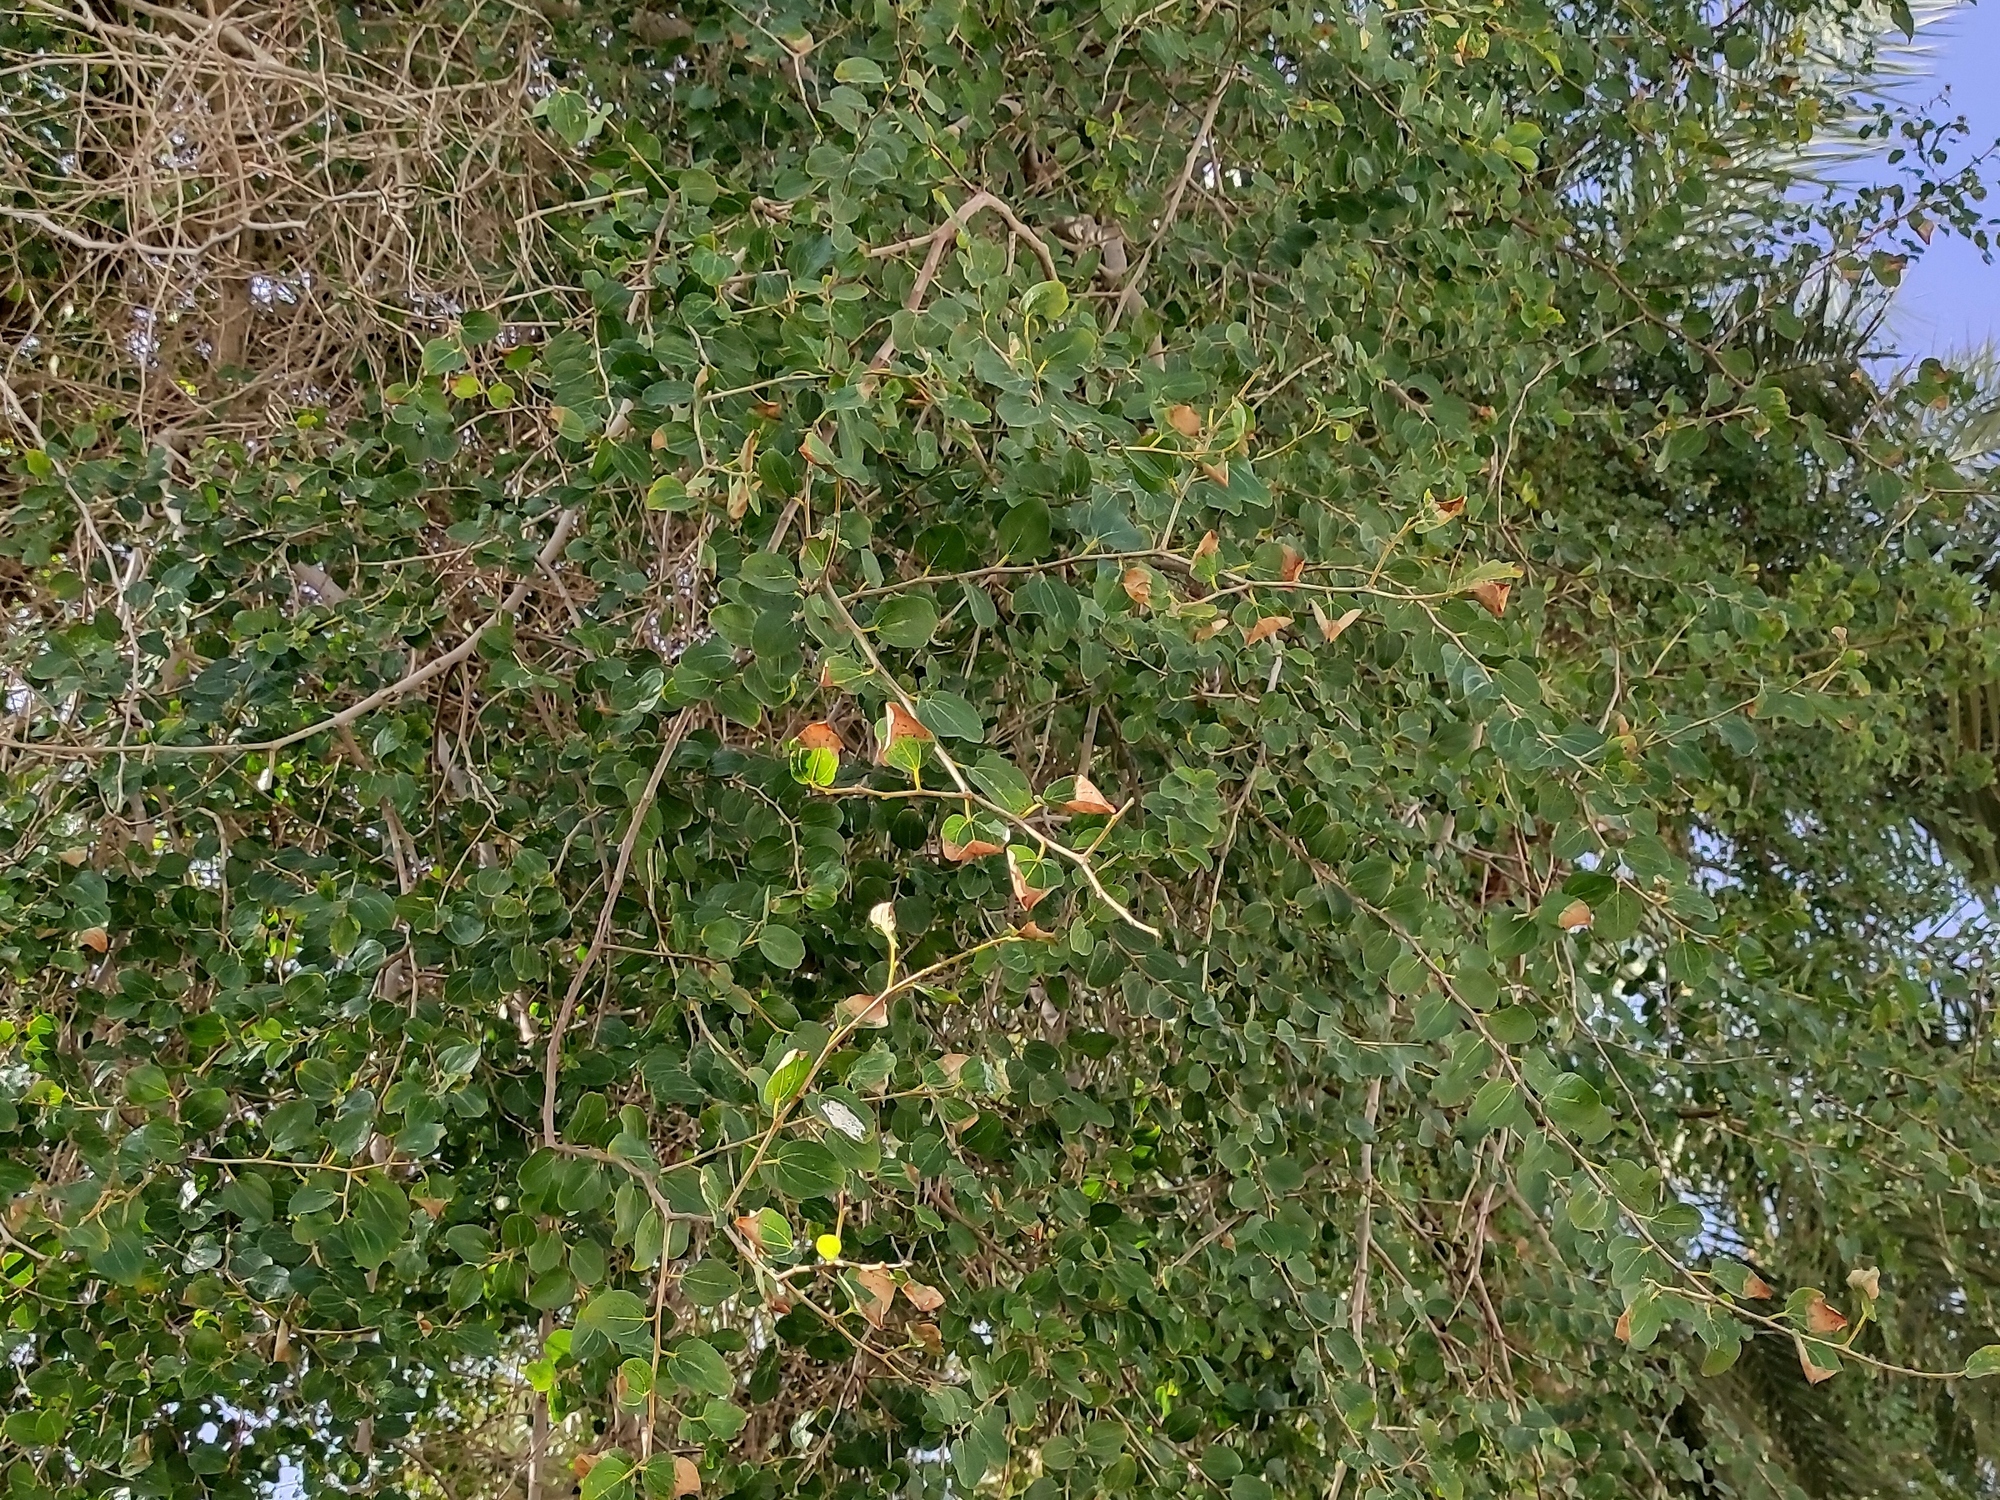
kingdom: Plantae
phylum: Tracheophyta
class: Magnoliopsida
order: Rosales
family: Rhamnaceae
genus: Ziziphus
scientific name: Ziziphus spina-christi
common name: Syrian christ-thorn
